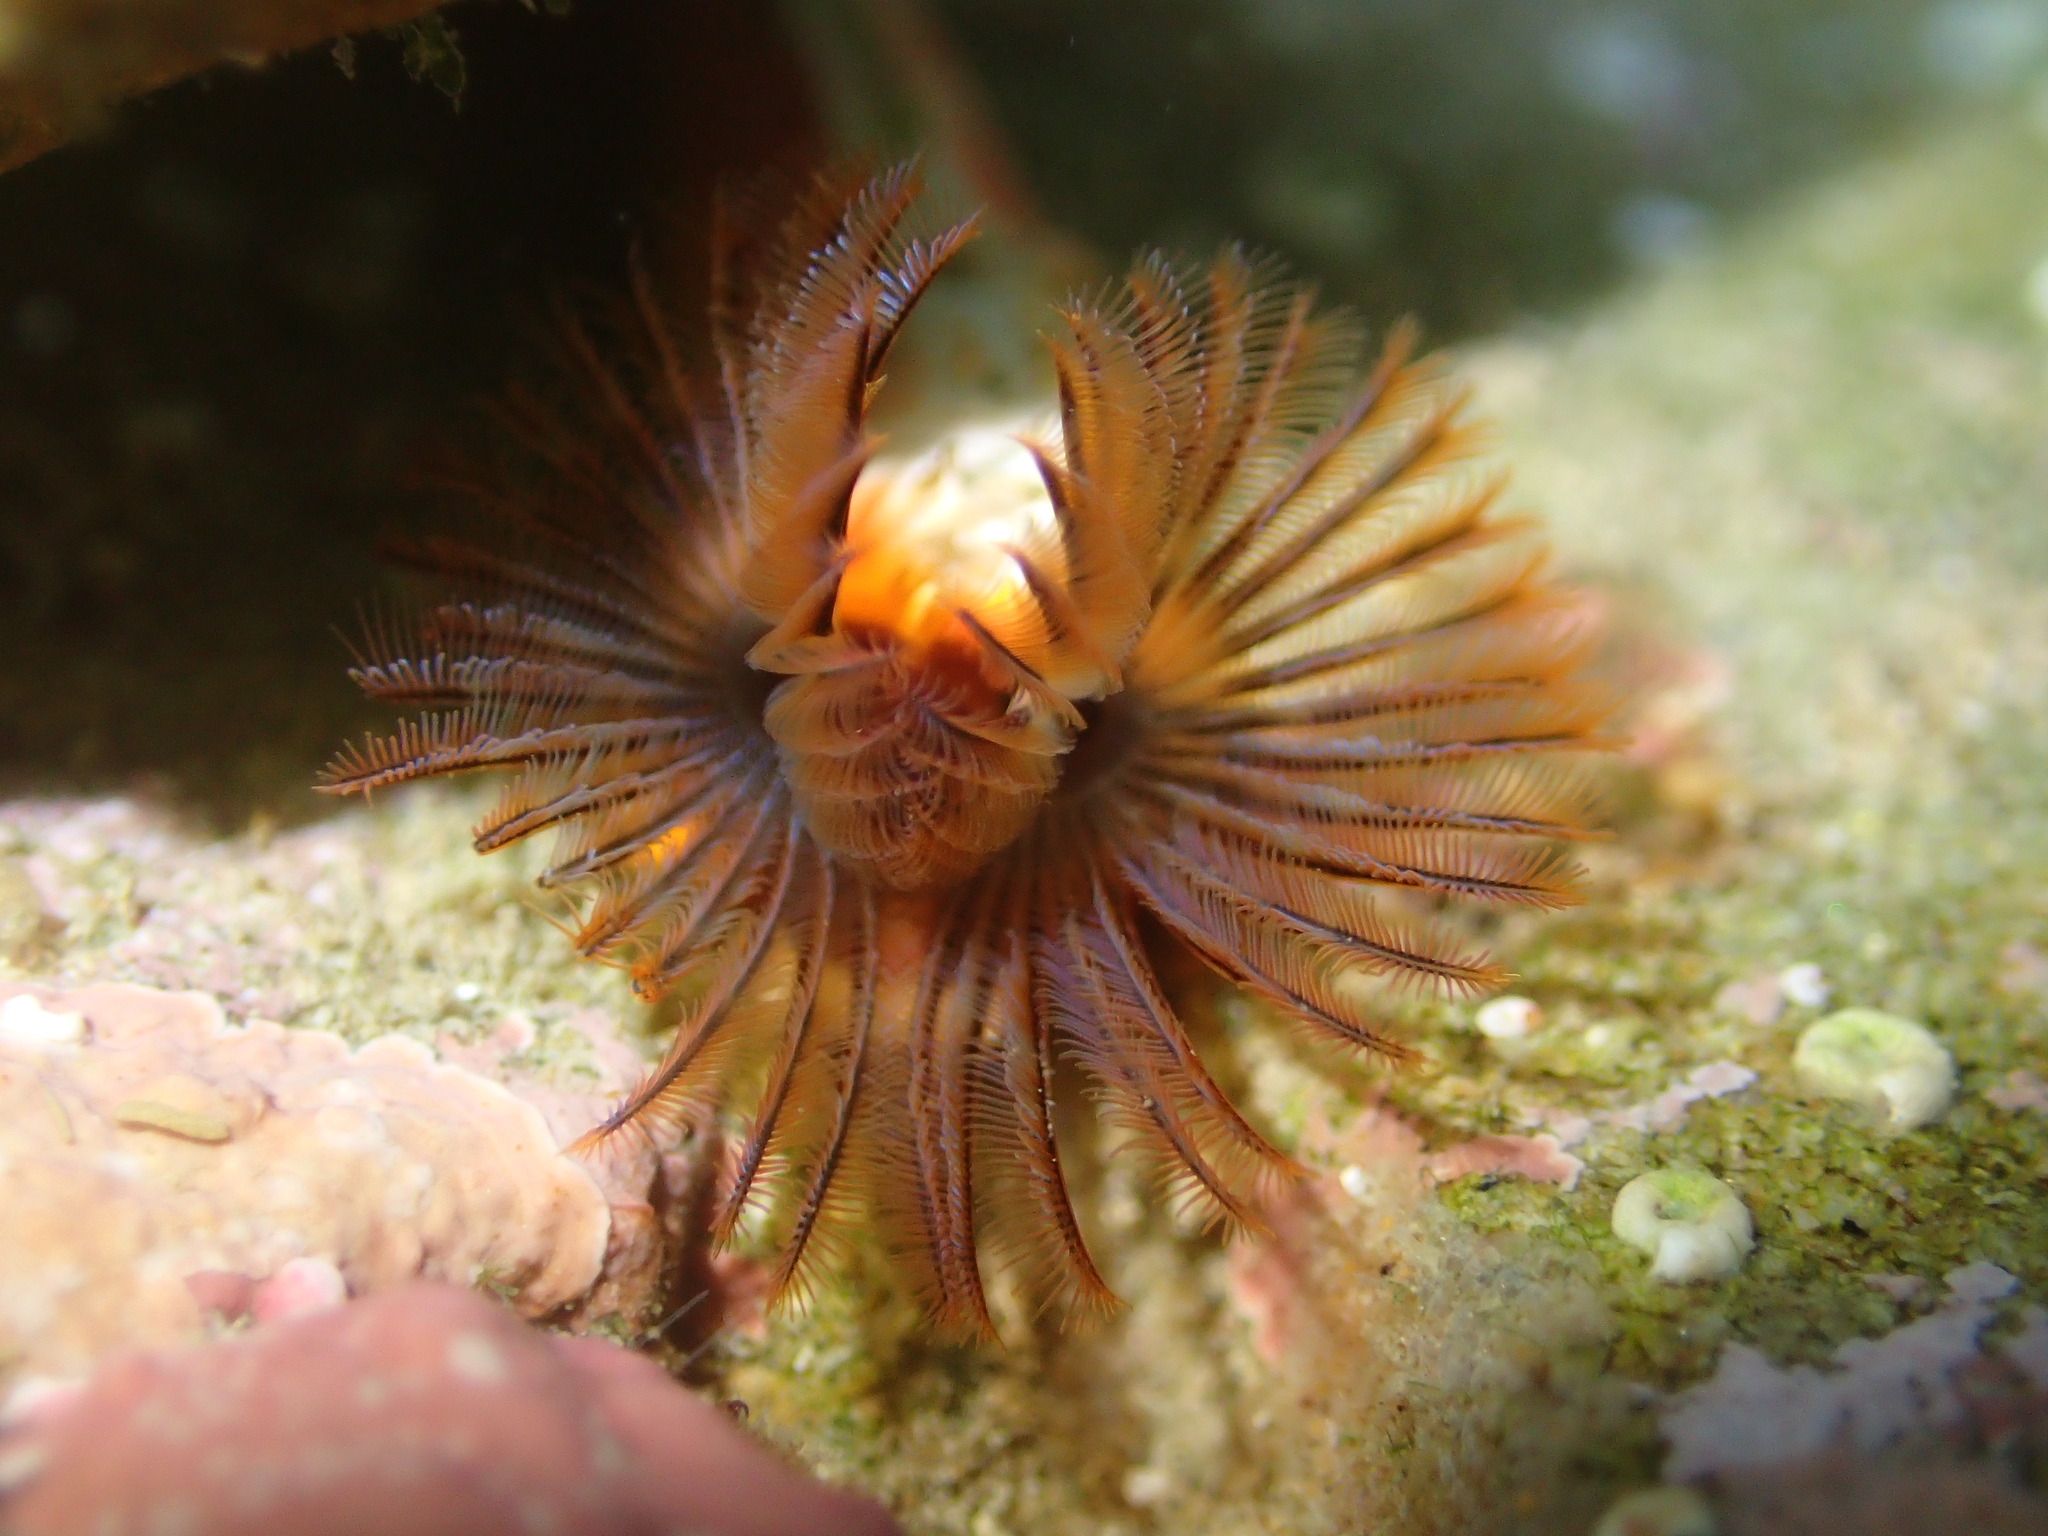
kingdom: Animalia
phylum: Annelida
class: Polychaeta
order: Sabellida
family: Serpulidae
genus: Galeolaria
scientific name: Galeolaria hystrix
